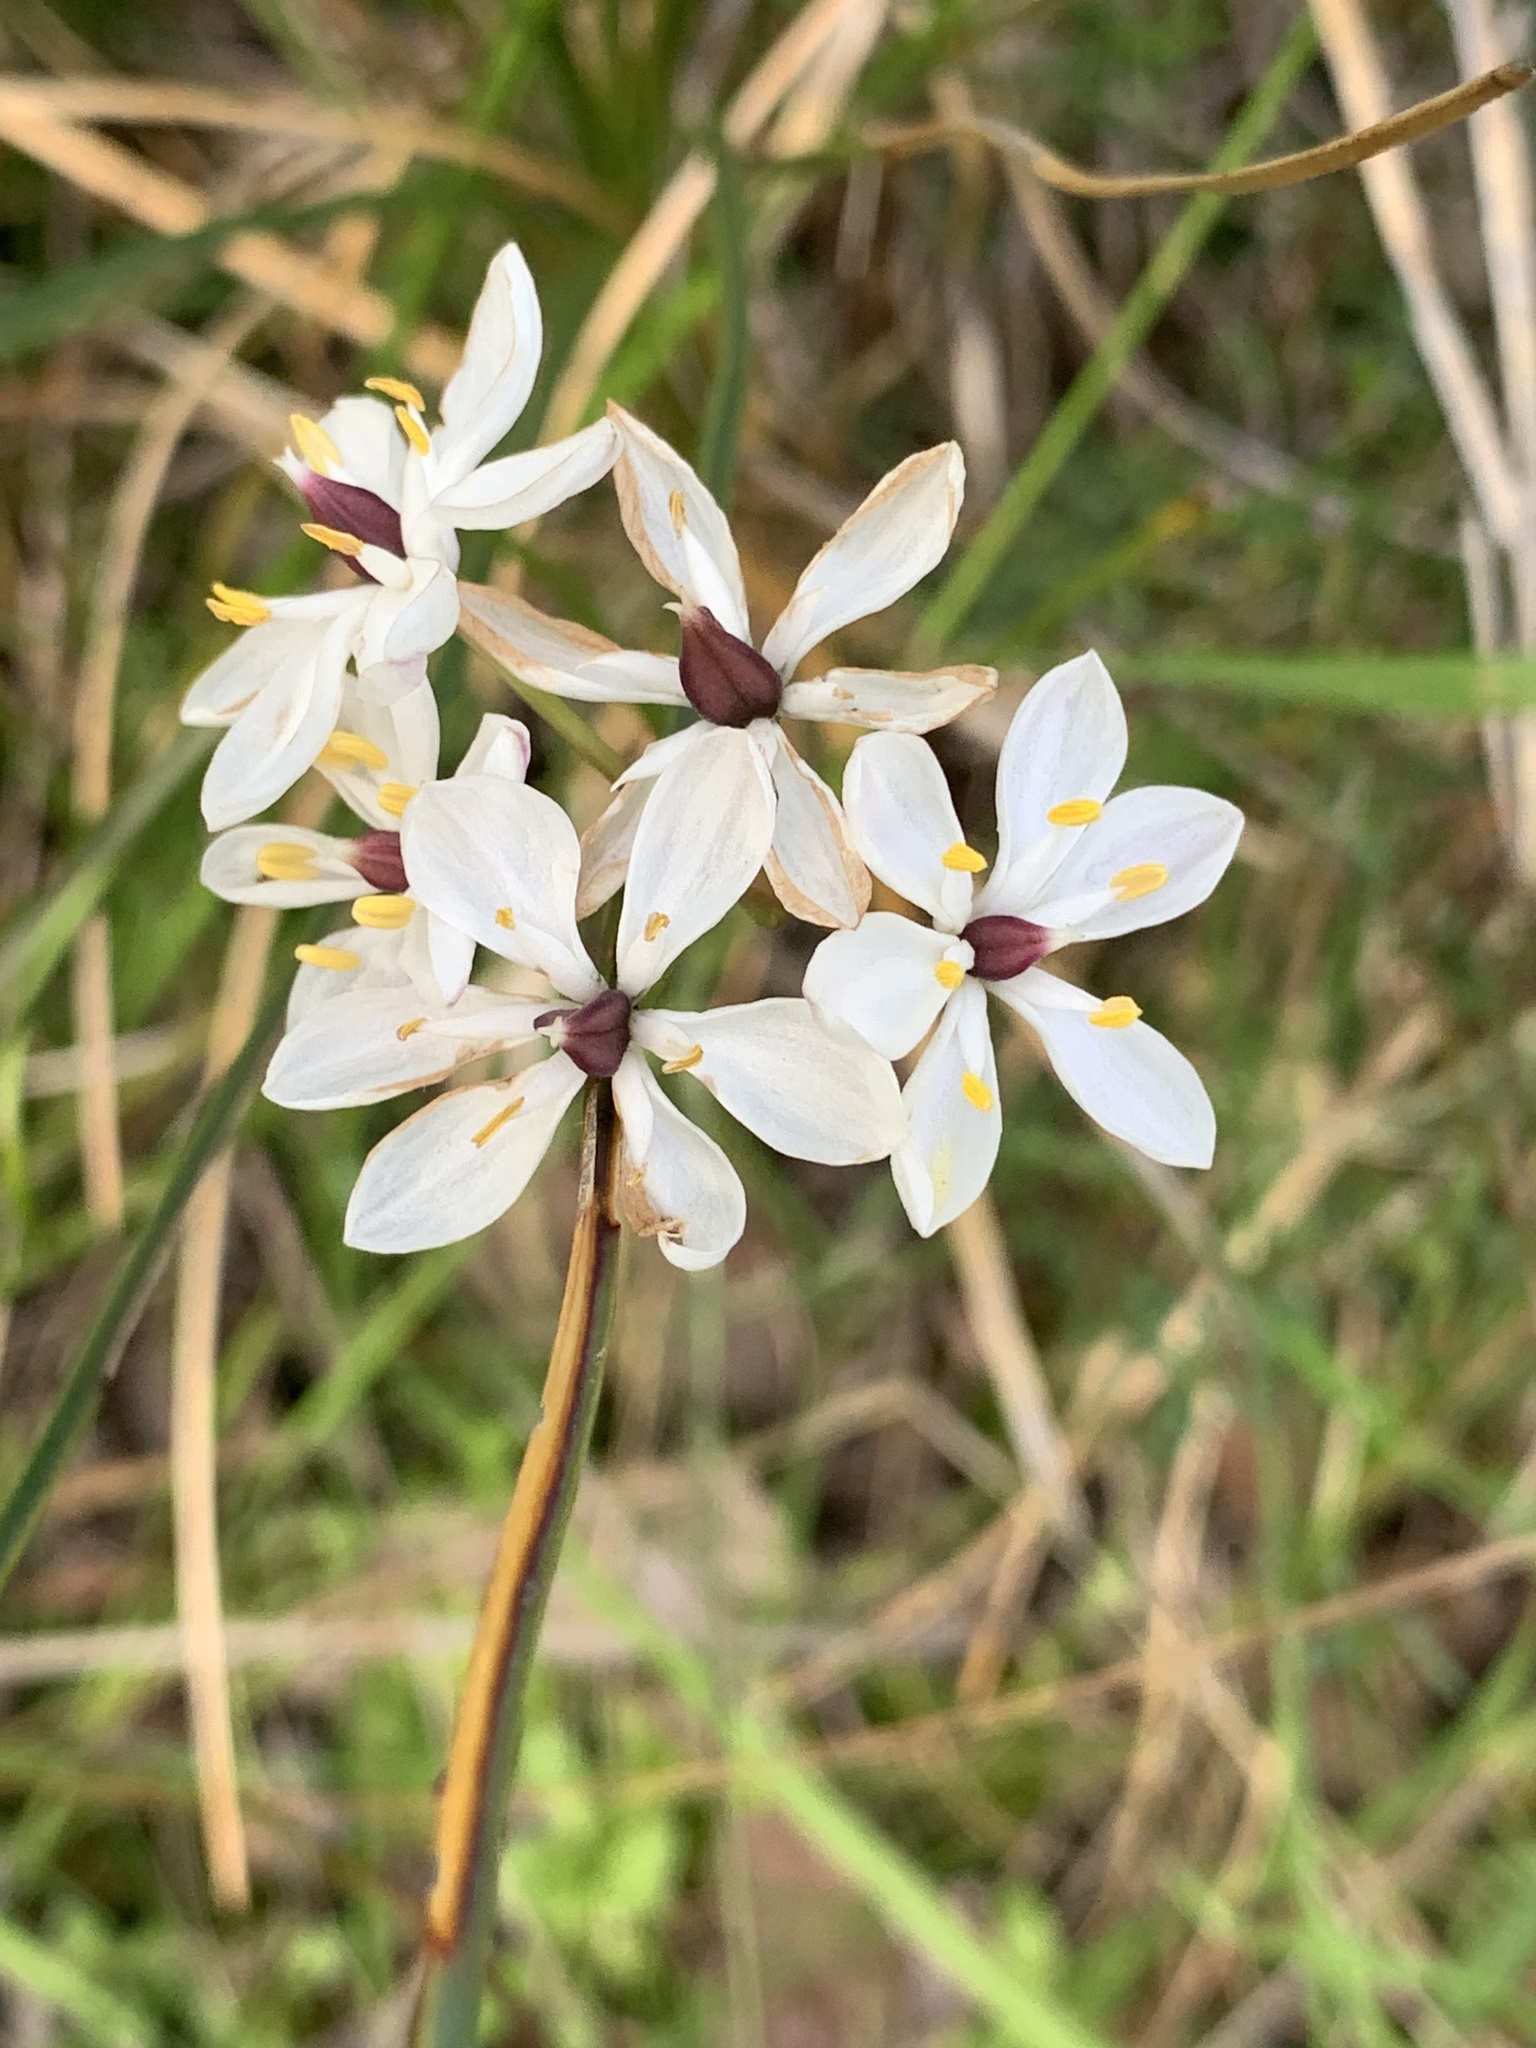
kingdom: Plantae
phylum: Tracheophyta
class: Liliopsida
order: Liliales
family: Colchicaceae
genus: Burchardia
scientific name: Burchardia congesta
